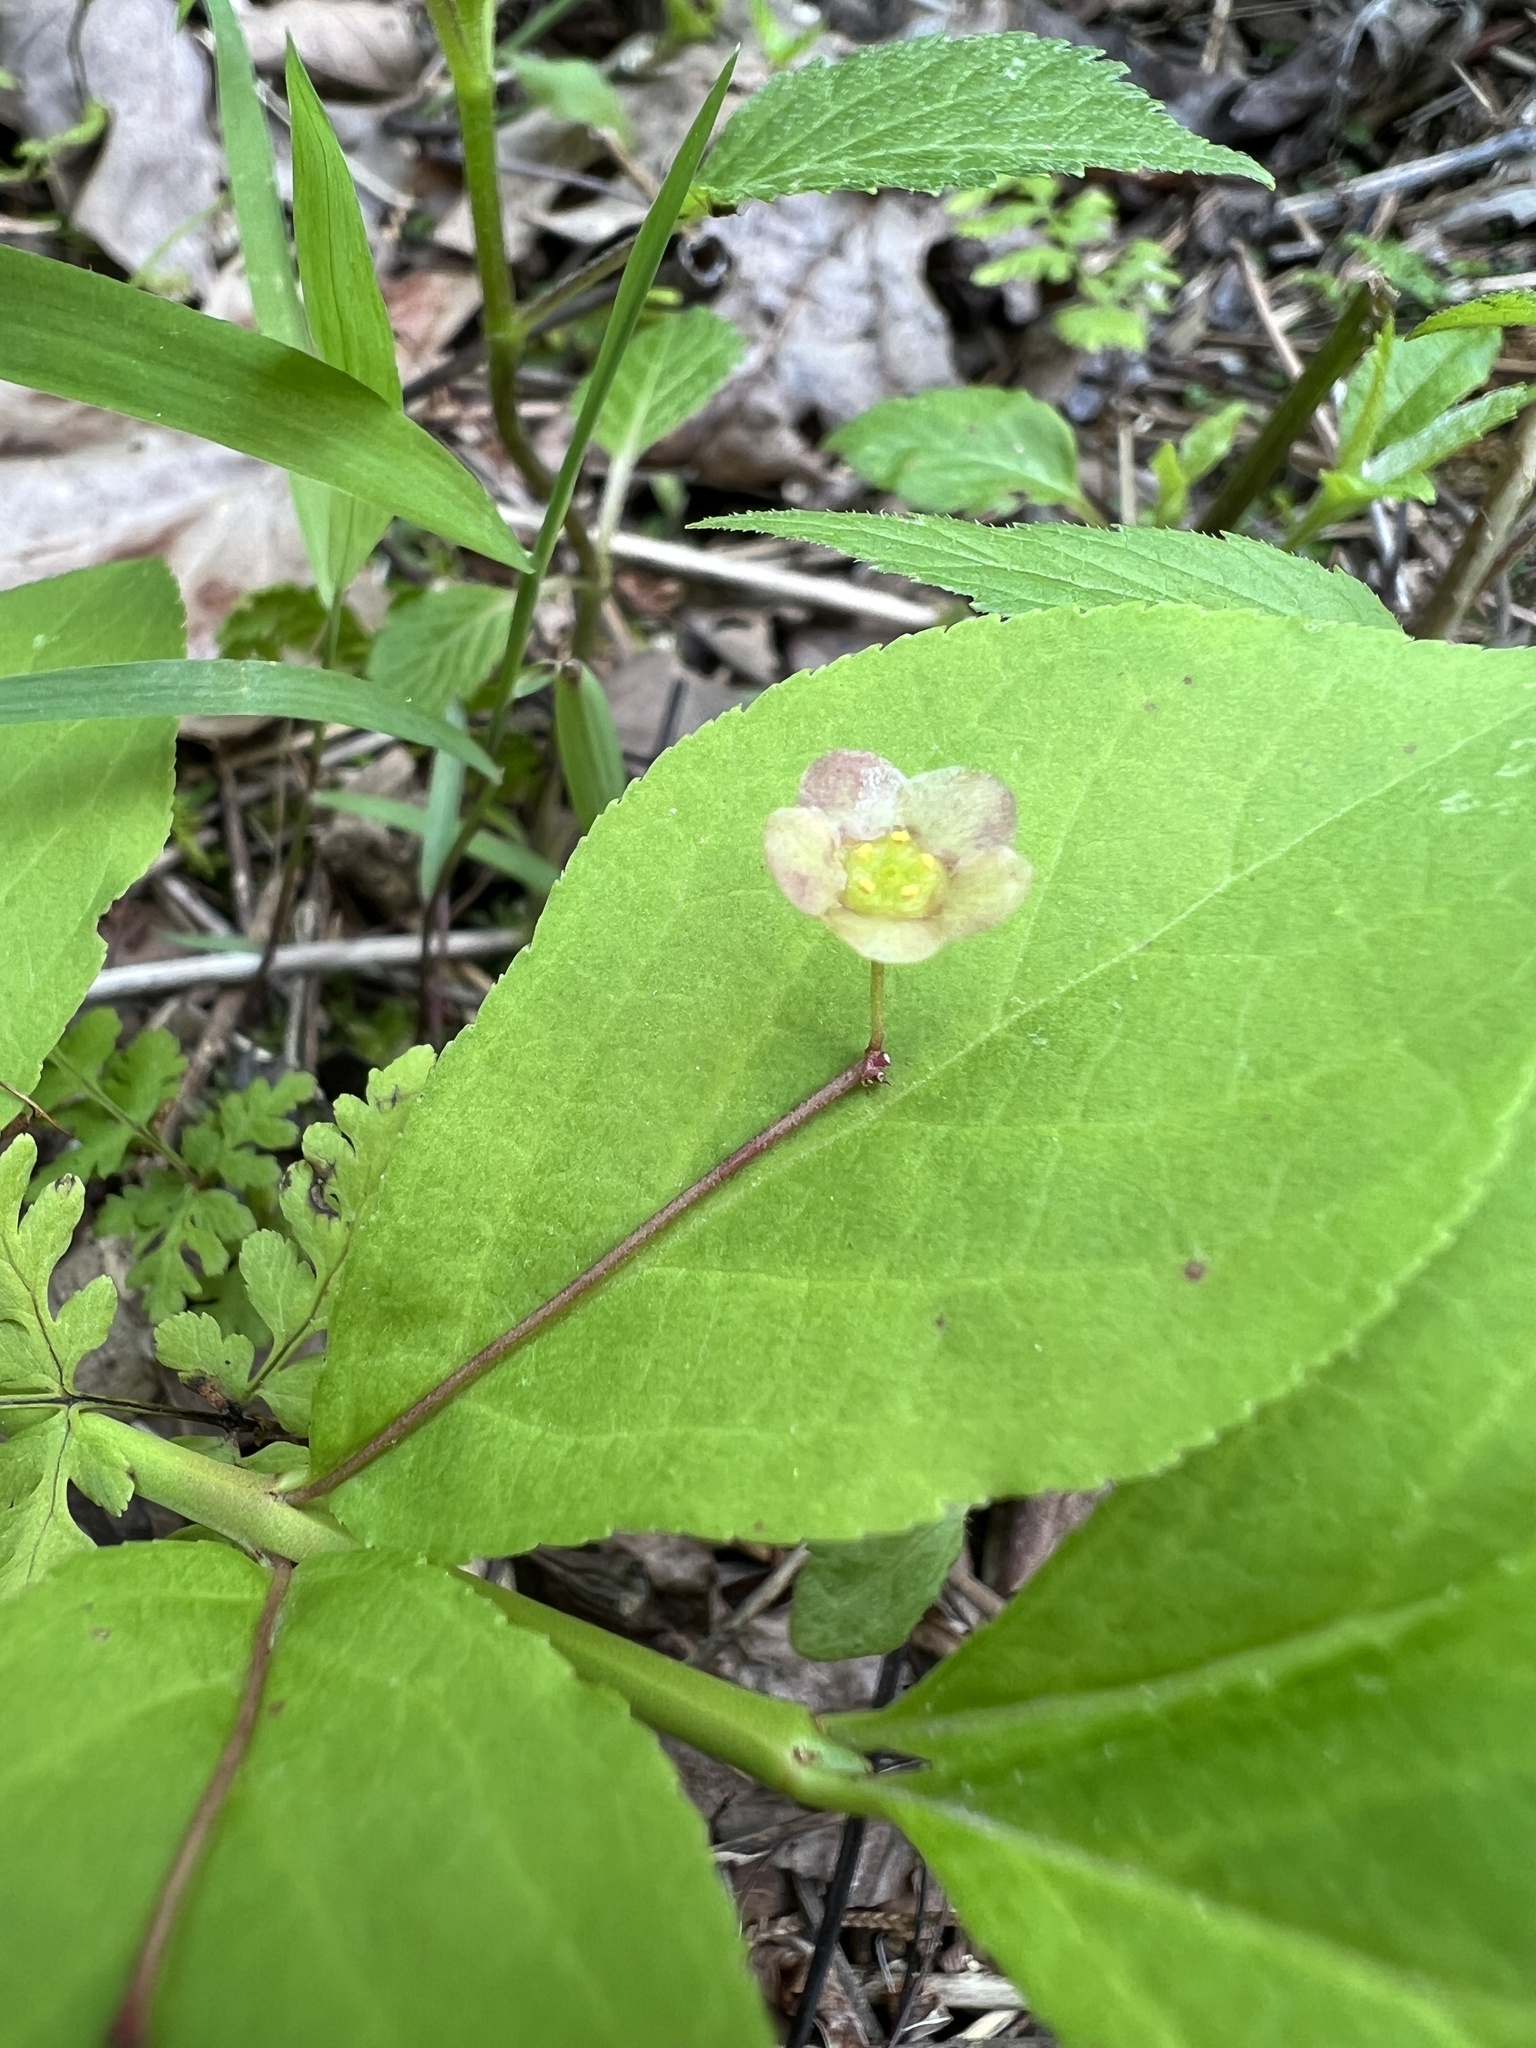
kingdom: Plantae
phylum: Tracheophyta
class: Magnoliopsida
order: Celastrales
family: Celastraceae
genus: Euonymus
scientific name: Euonymus obovatus
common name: Running strawberry-bush
